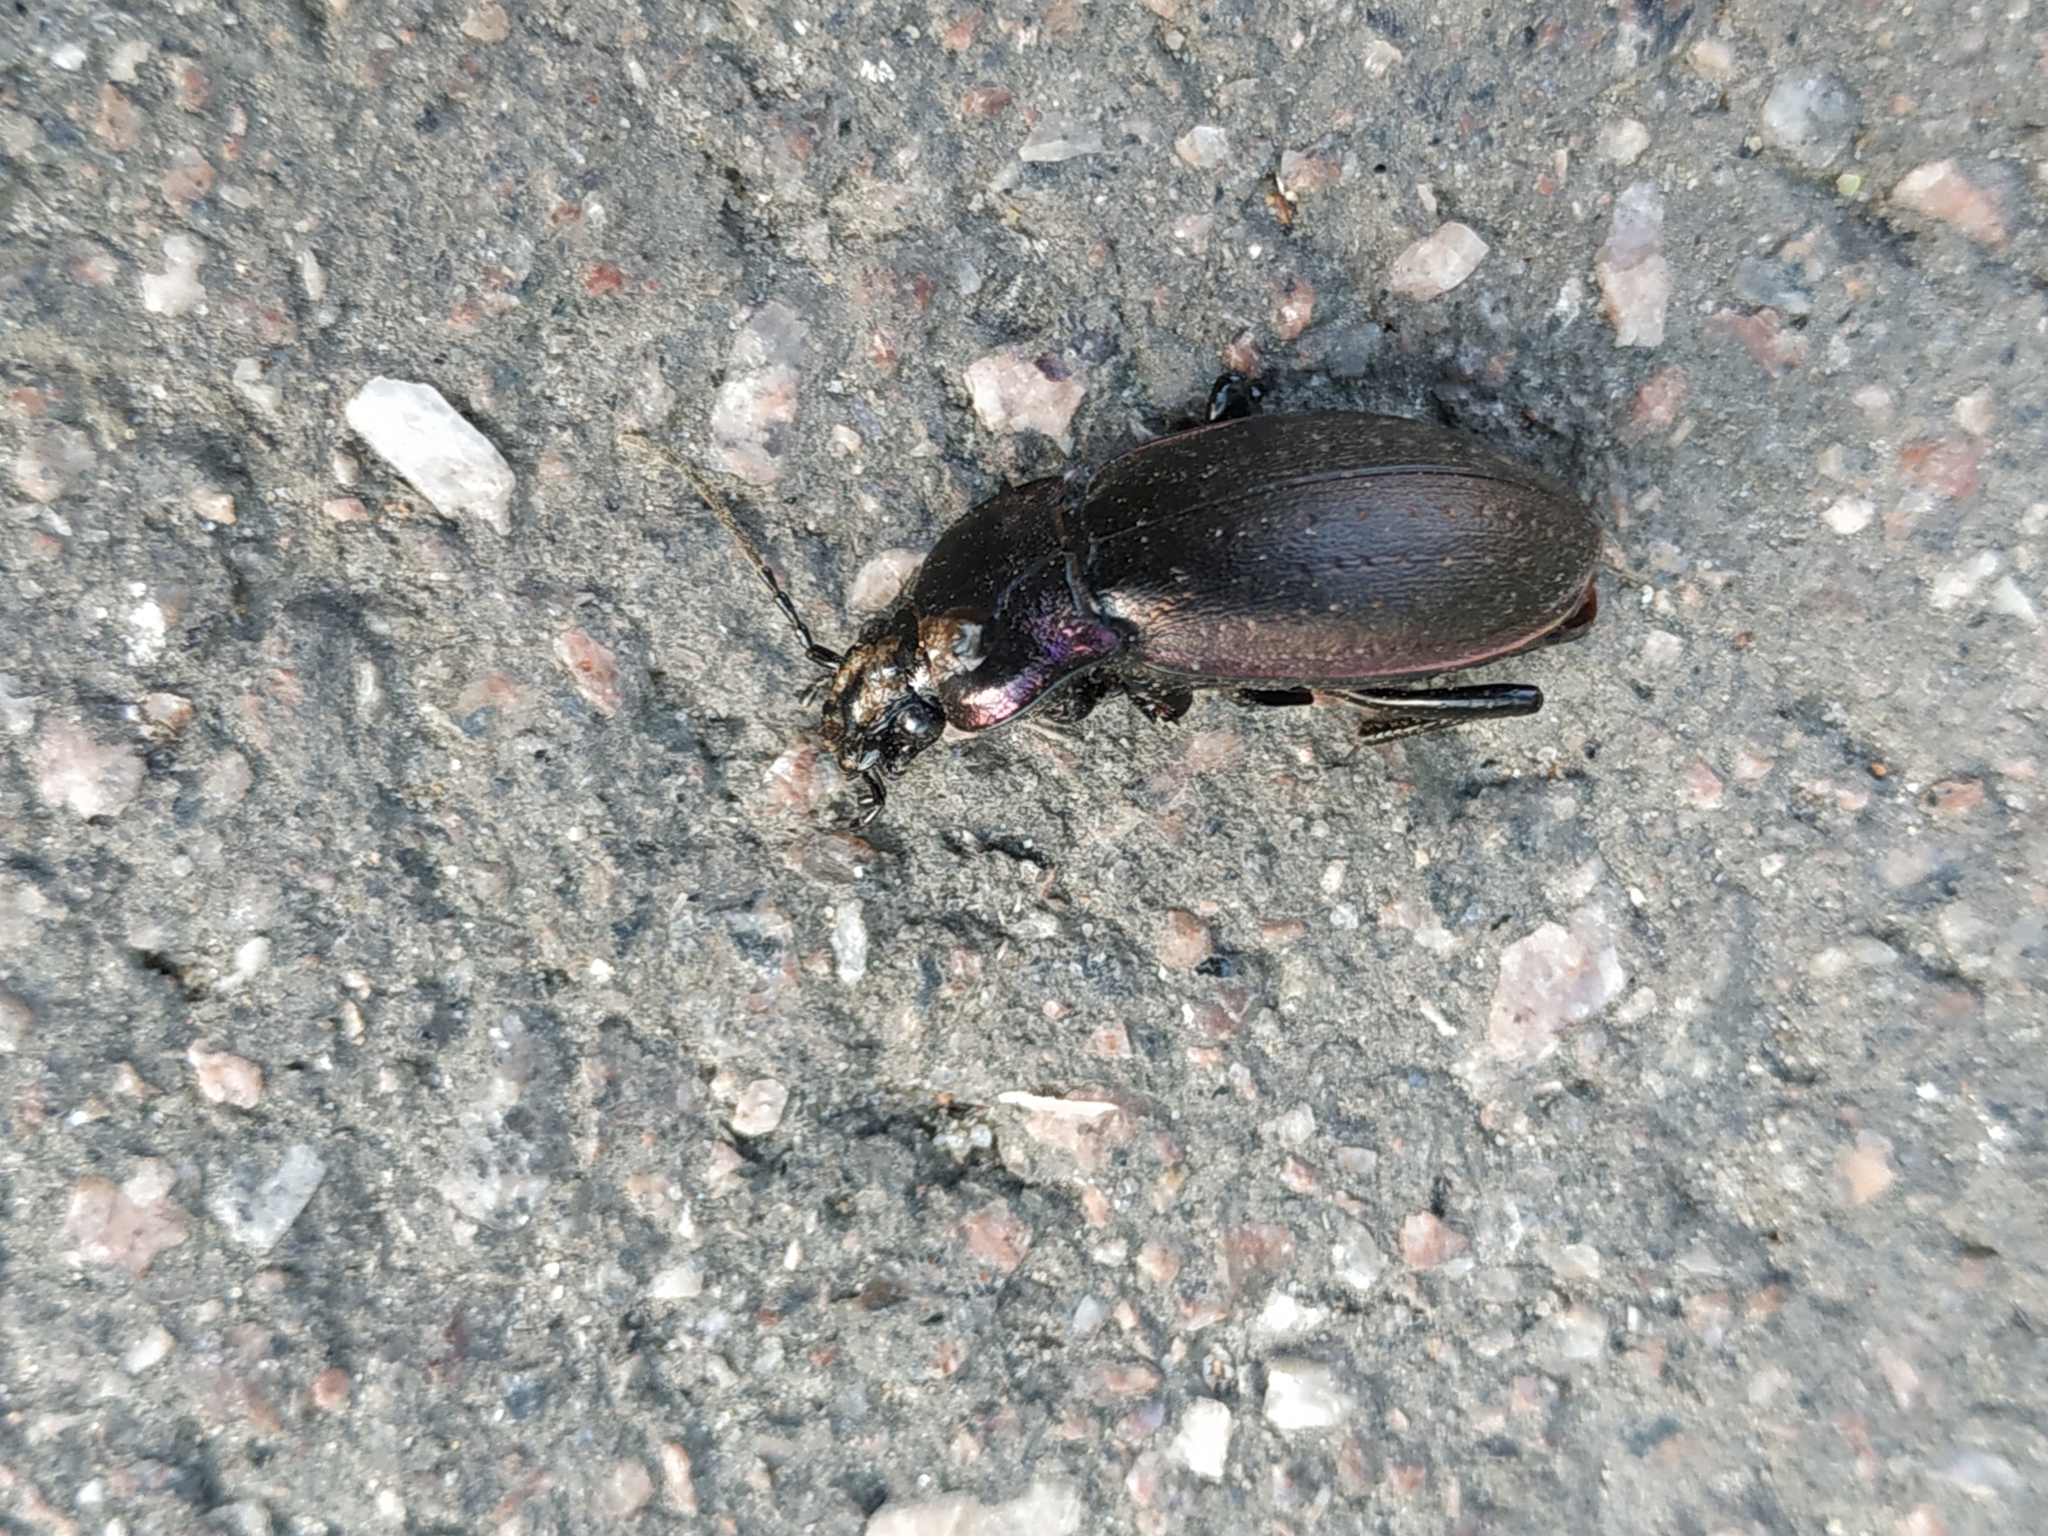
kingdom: Animalia
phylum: Arthropoda
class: Insecta
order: Coleoptera
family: Carabidae
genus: Carabus
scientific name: Carabus nemoralis
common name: European ground beetle
